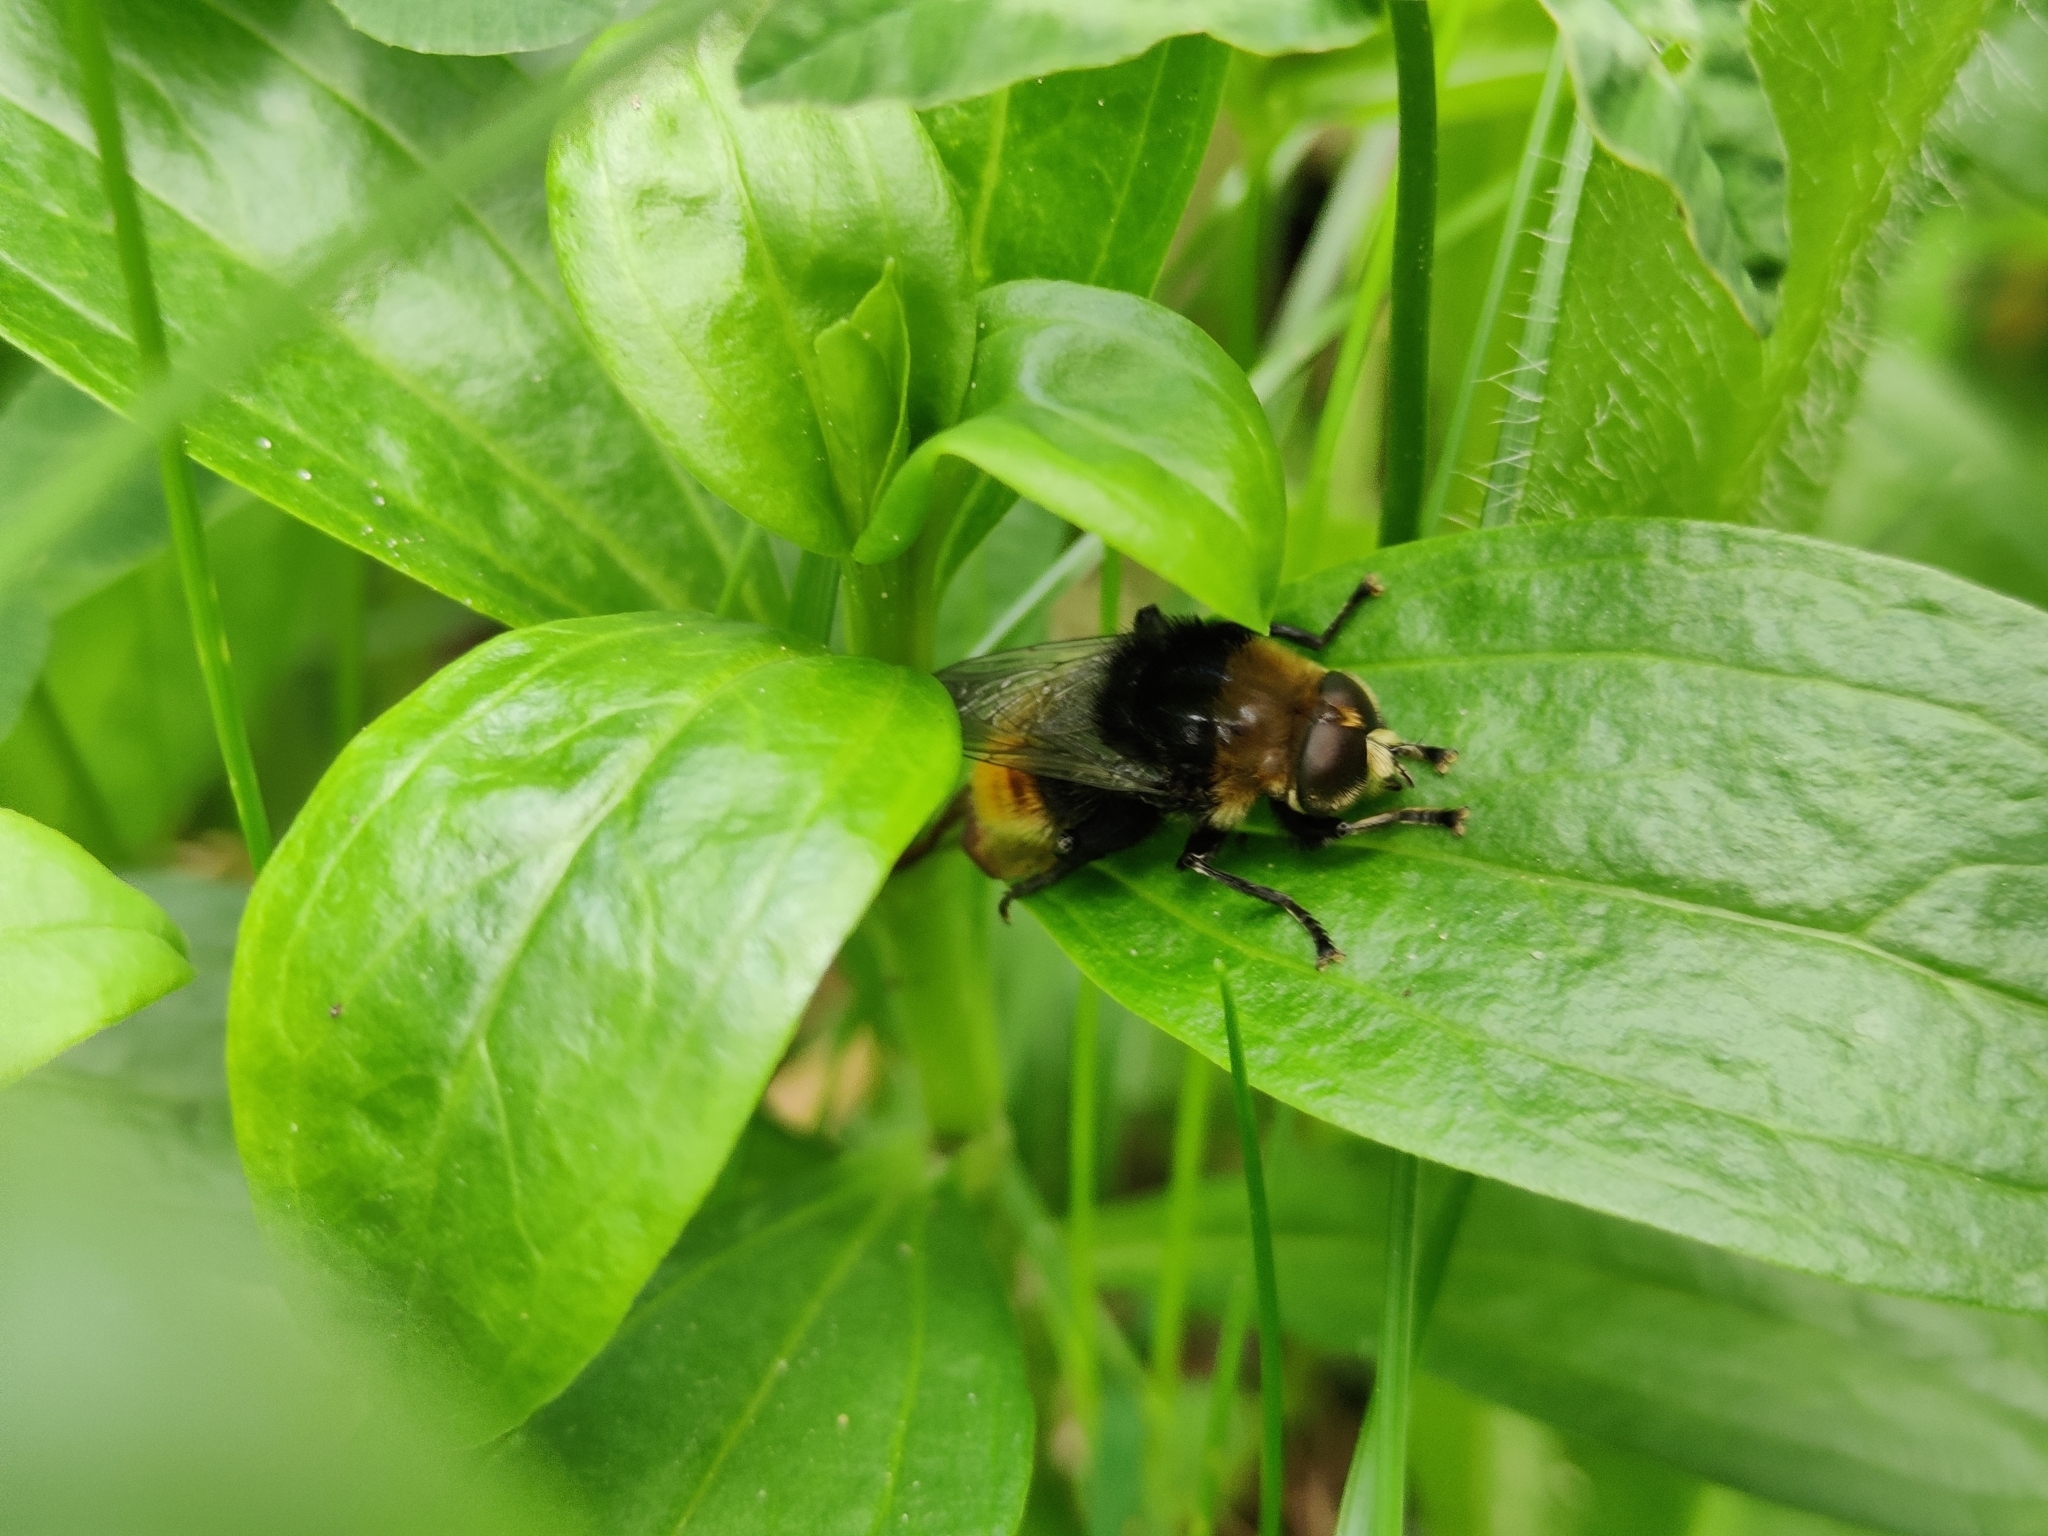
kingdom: Animalia
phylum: Arthropoda
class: Insecta
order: Diptera
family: Syrphidae
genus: Merodon
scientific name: Merodon equestris
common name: Greater bulb-fly
